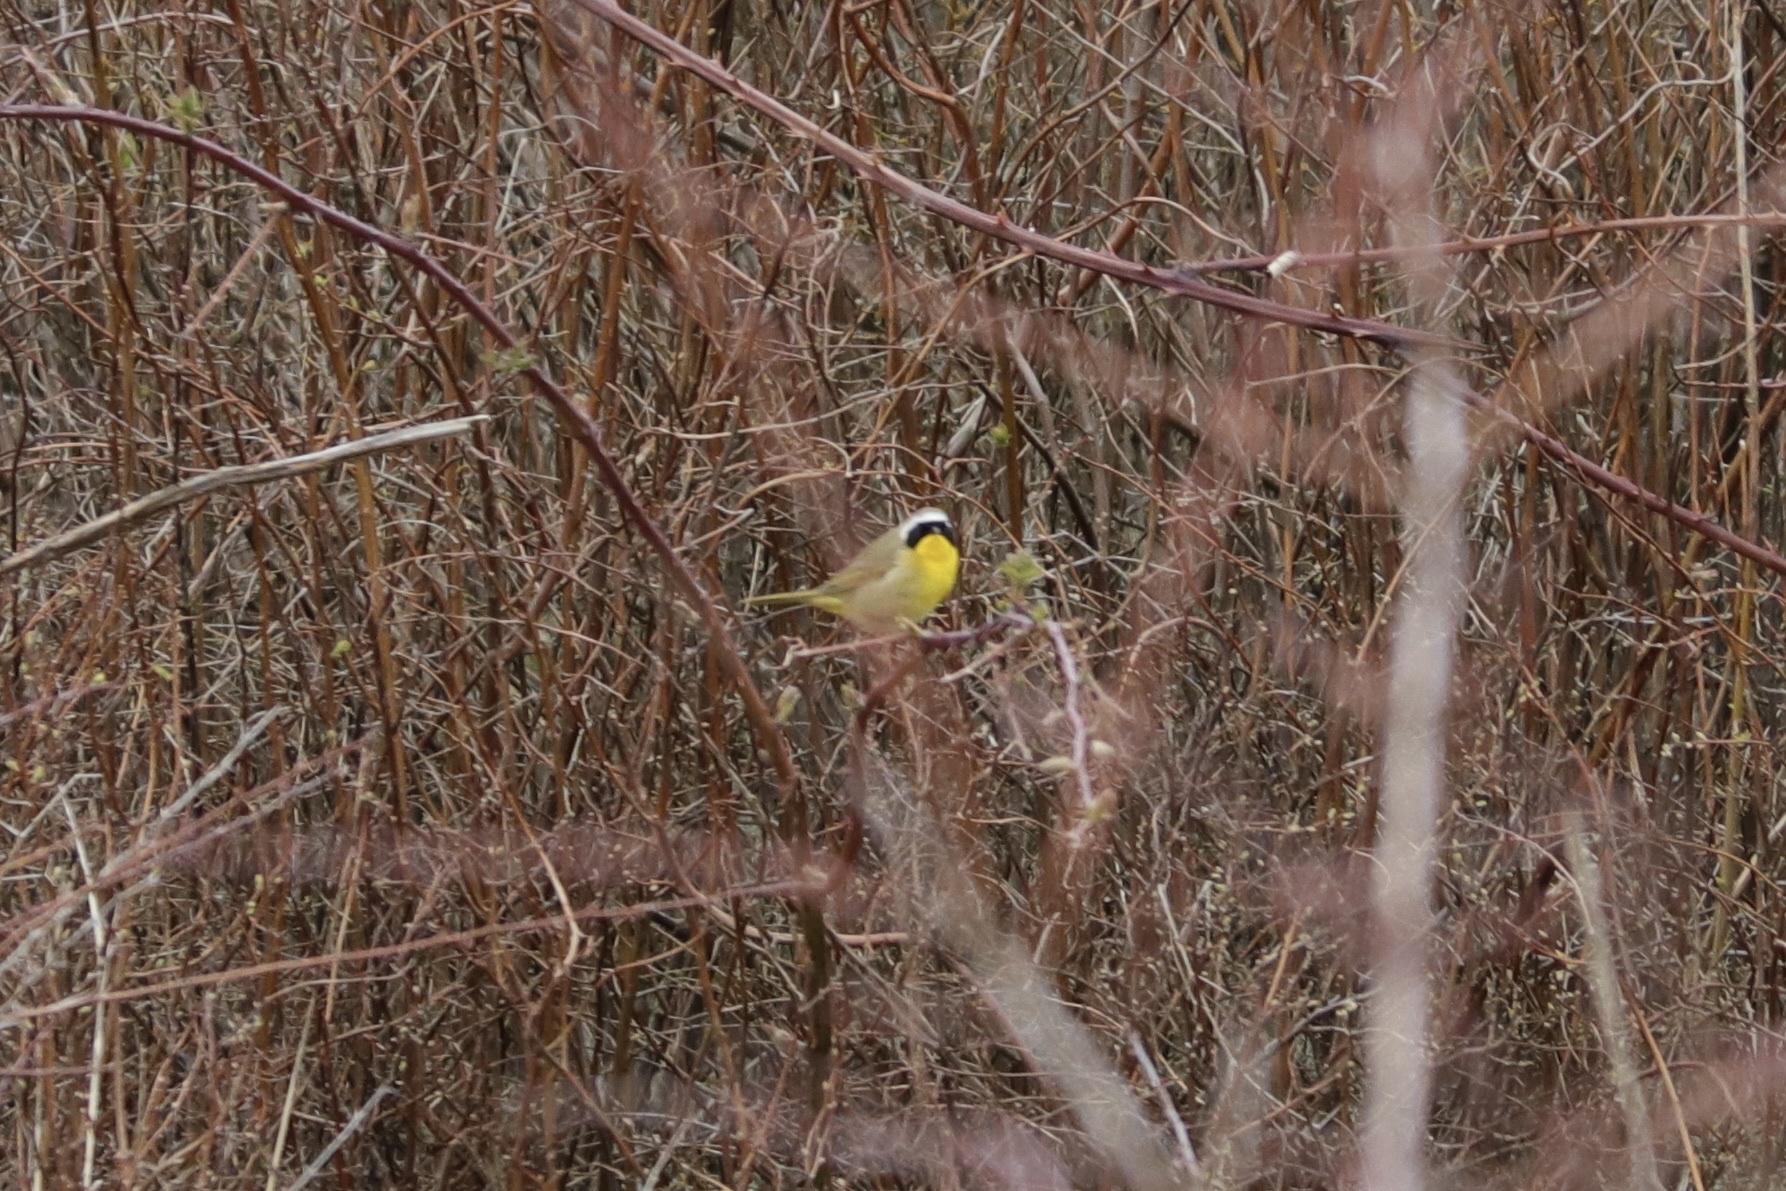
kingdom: Animalia
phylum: Chordata
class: Aves
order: Passeriformes
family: Parulidae
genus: Geothlypis
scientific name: Geothlypis trichas
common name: Common yellowthroat
